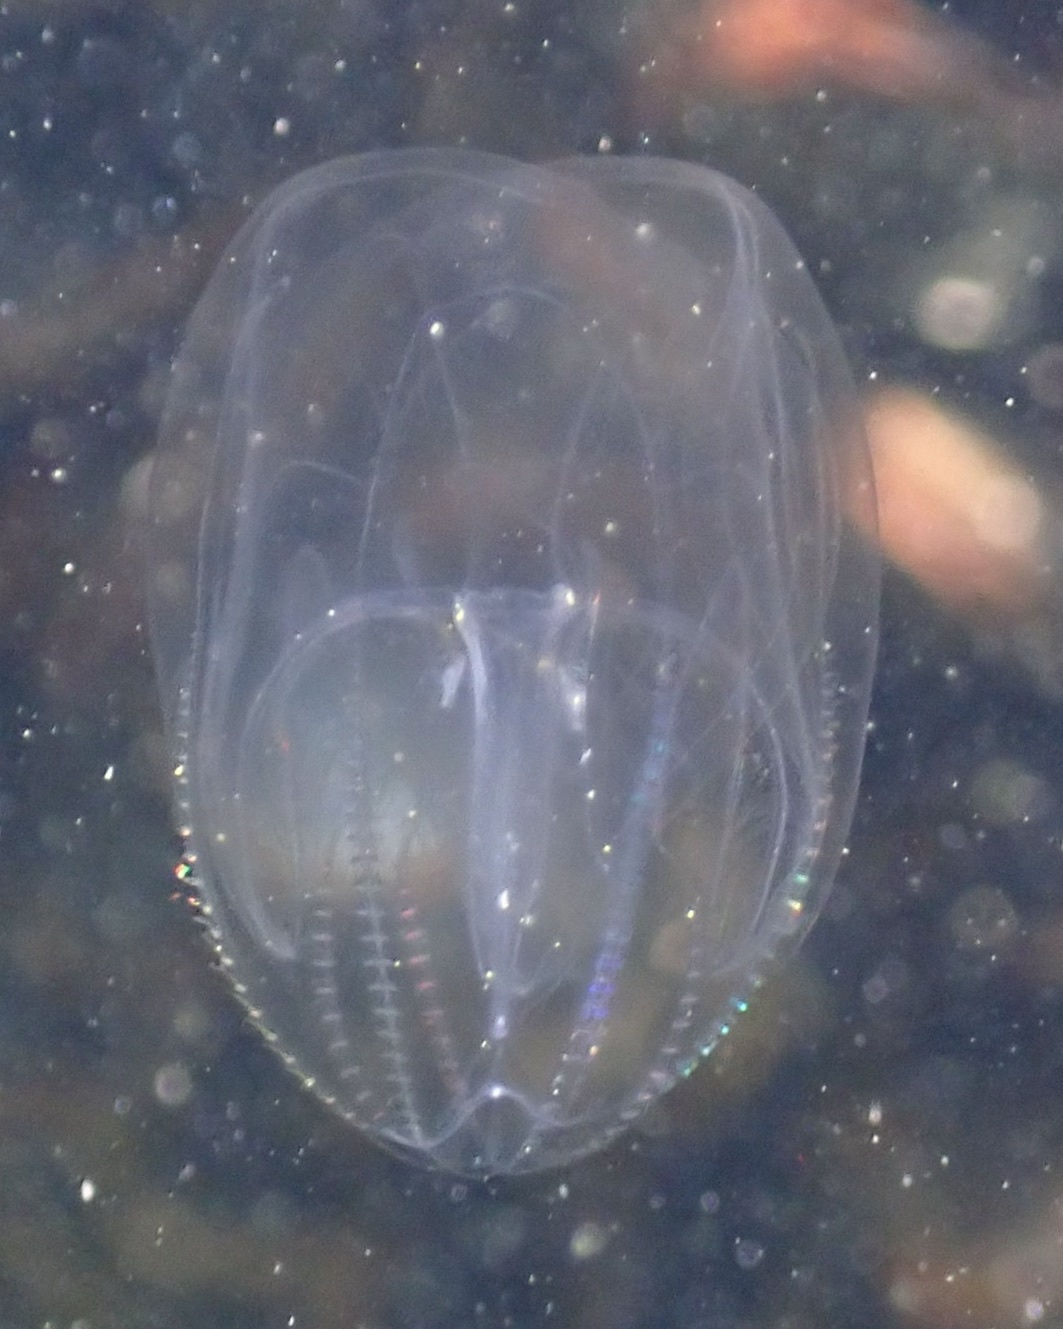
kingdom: Animalia
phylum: Ctenophora
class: Tentaculata
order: Lobata
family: Bolinopsidae
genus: Mnemiopsis
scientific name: Mnemiopsis leidyi
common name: American comb jelly
